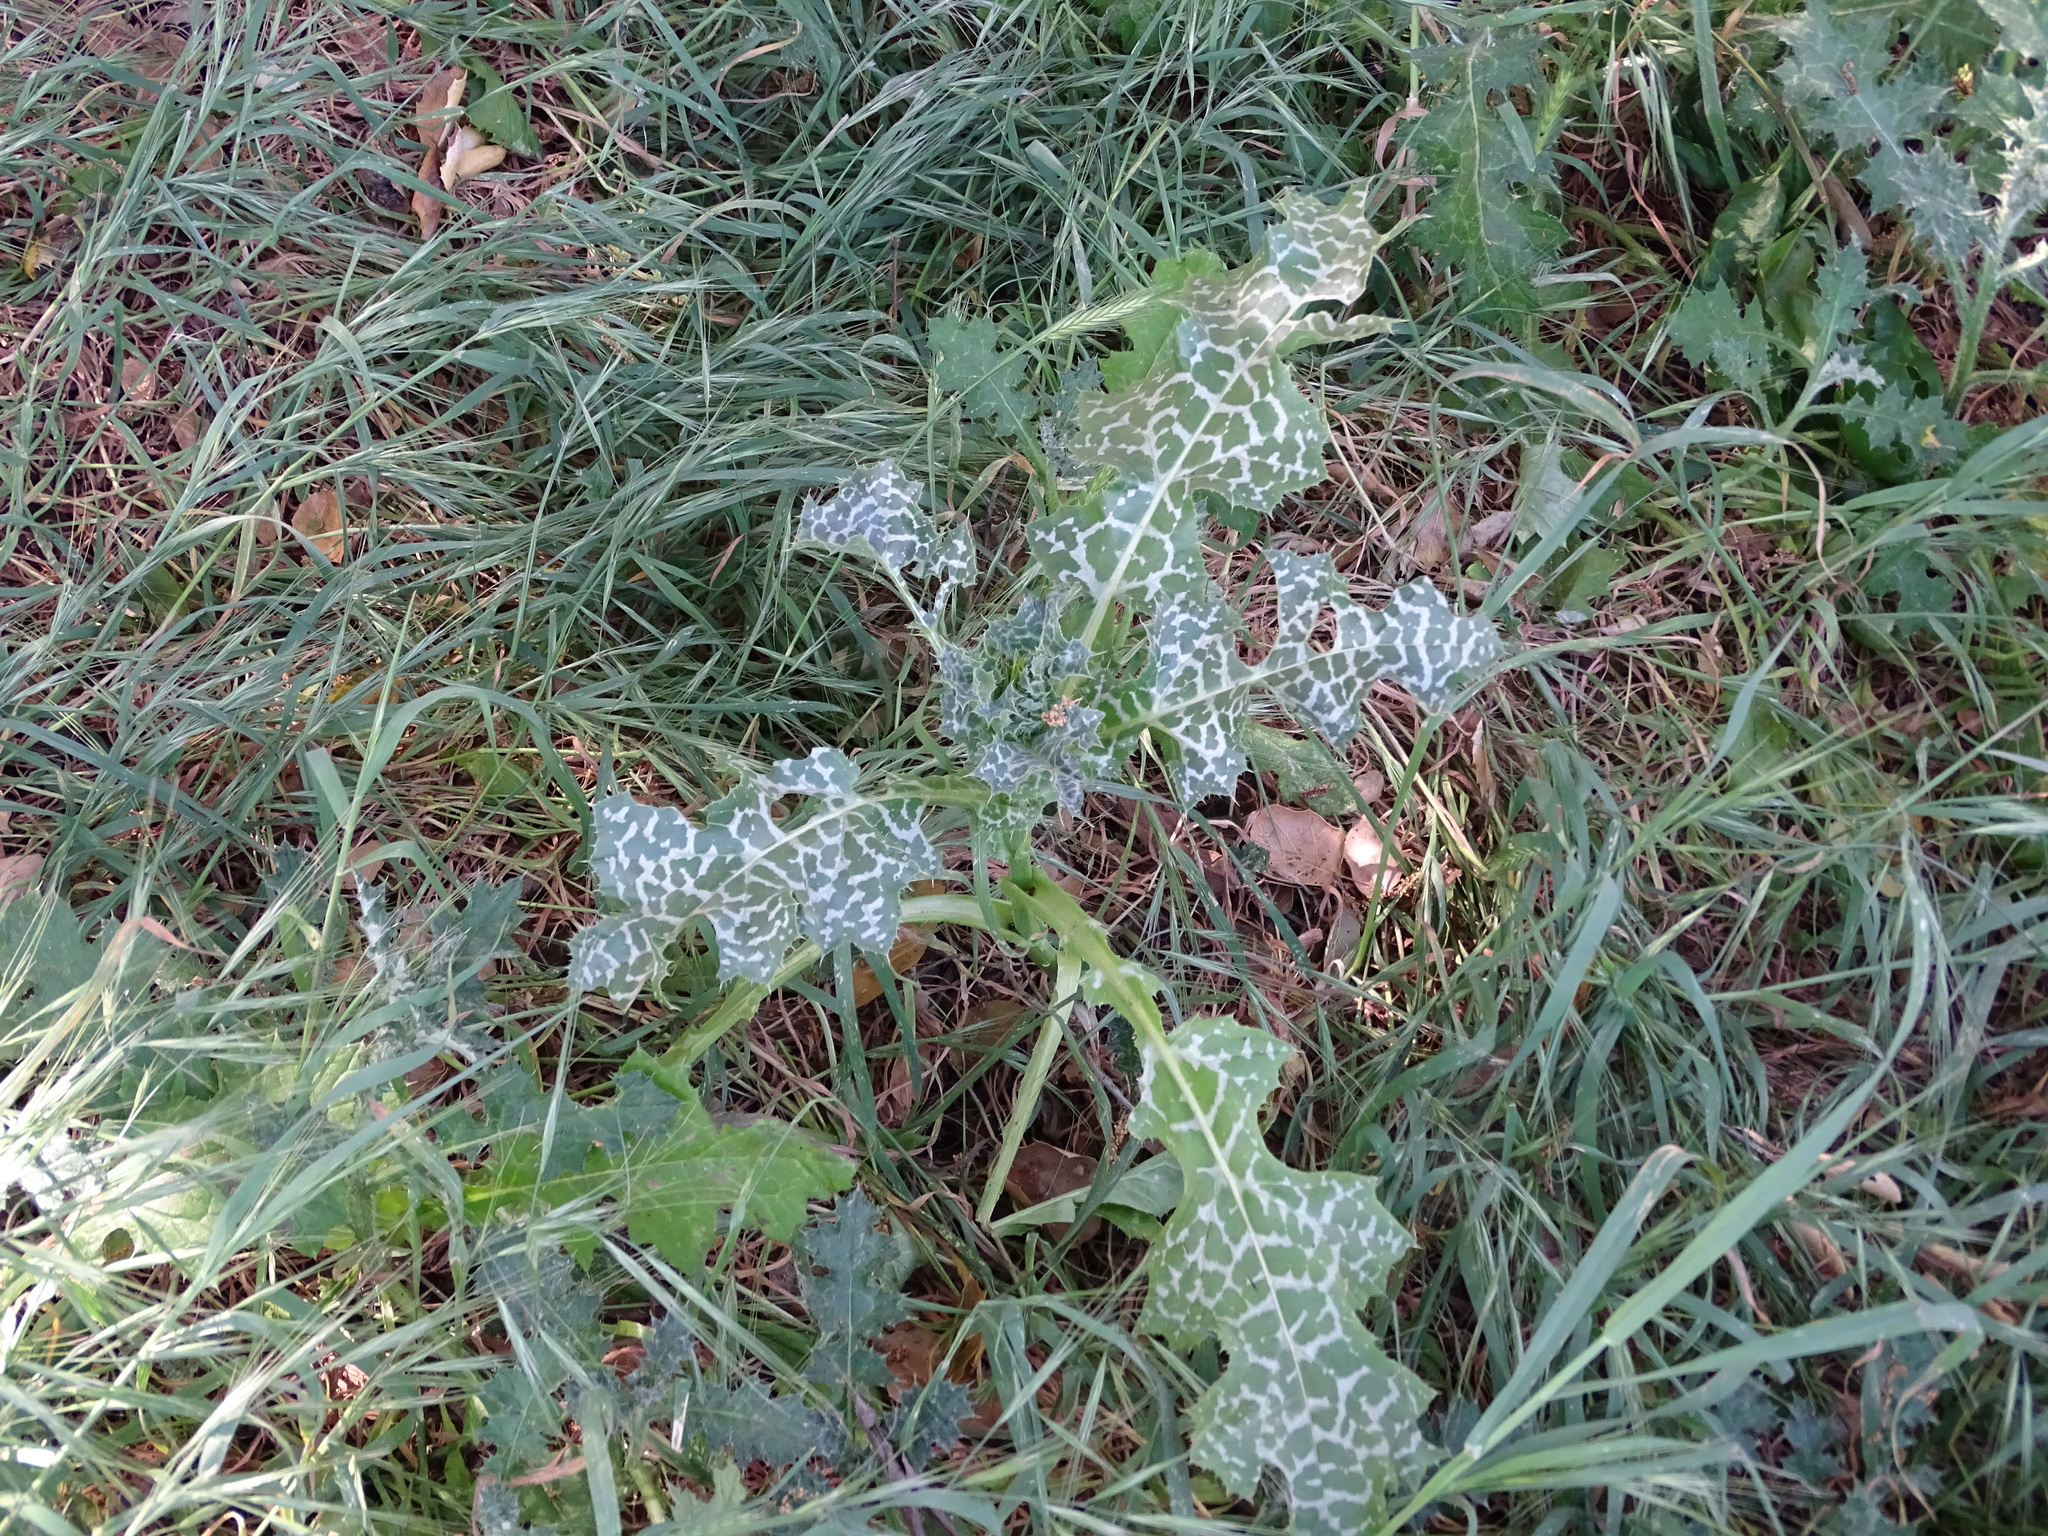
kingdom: Plantae
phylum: Tracheophyta
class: Magnoliopsida
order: Asterales
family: Asteraceae
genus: Silybum
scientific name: Silybum marianum
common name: Milk thistle
